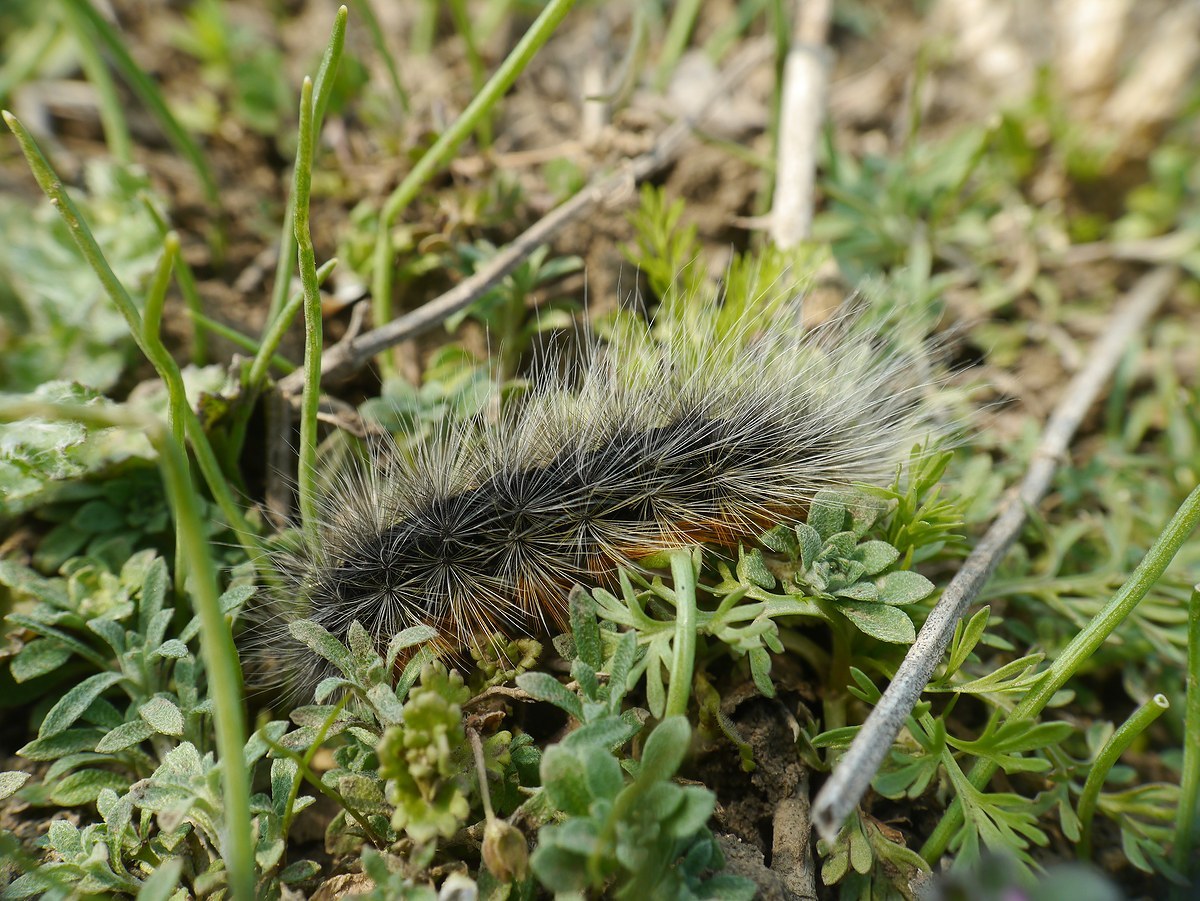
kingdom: Animalia
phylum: Arthropoda
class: Insecta
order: Lepidoptera
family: Erebidae
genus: Eucharia
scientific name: Eucharia festiva
